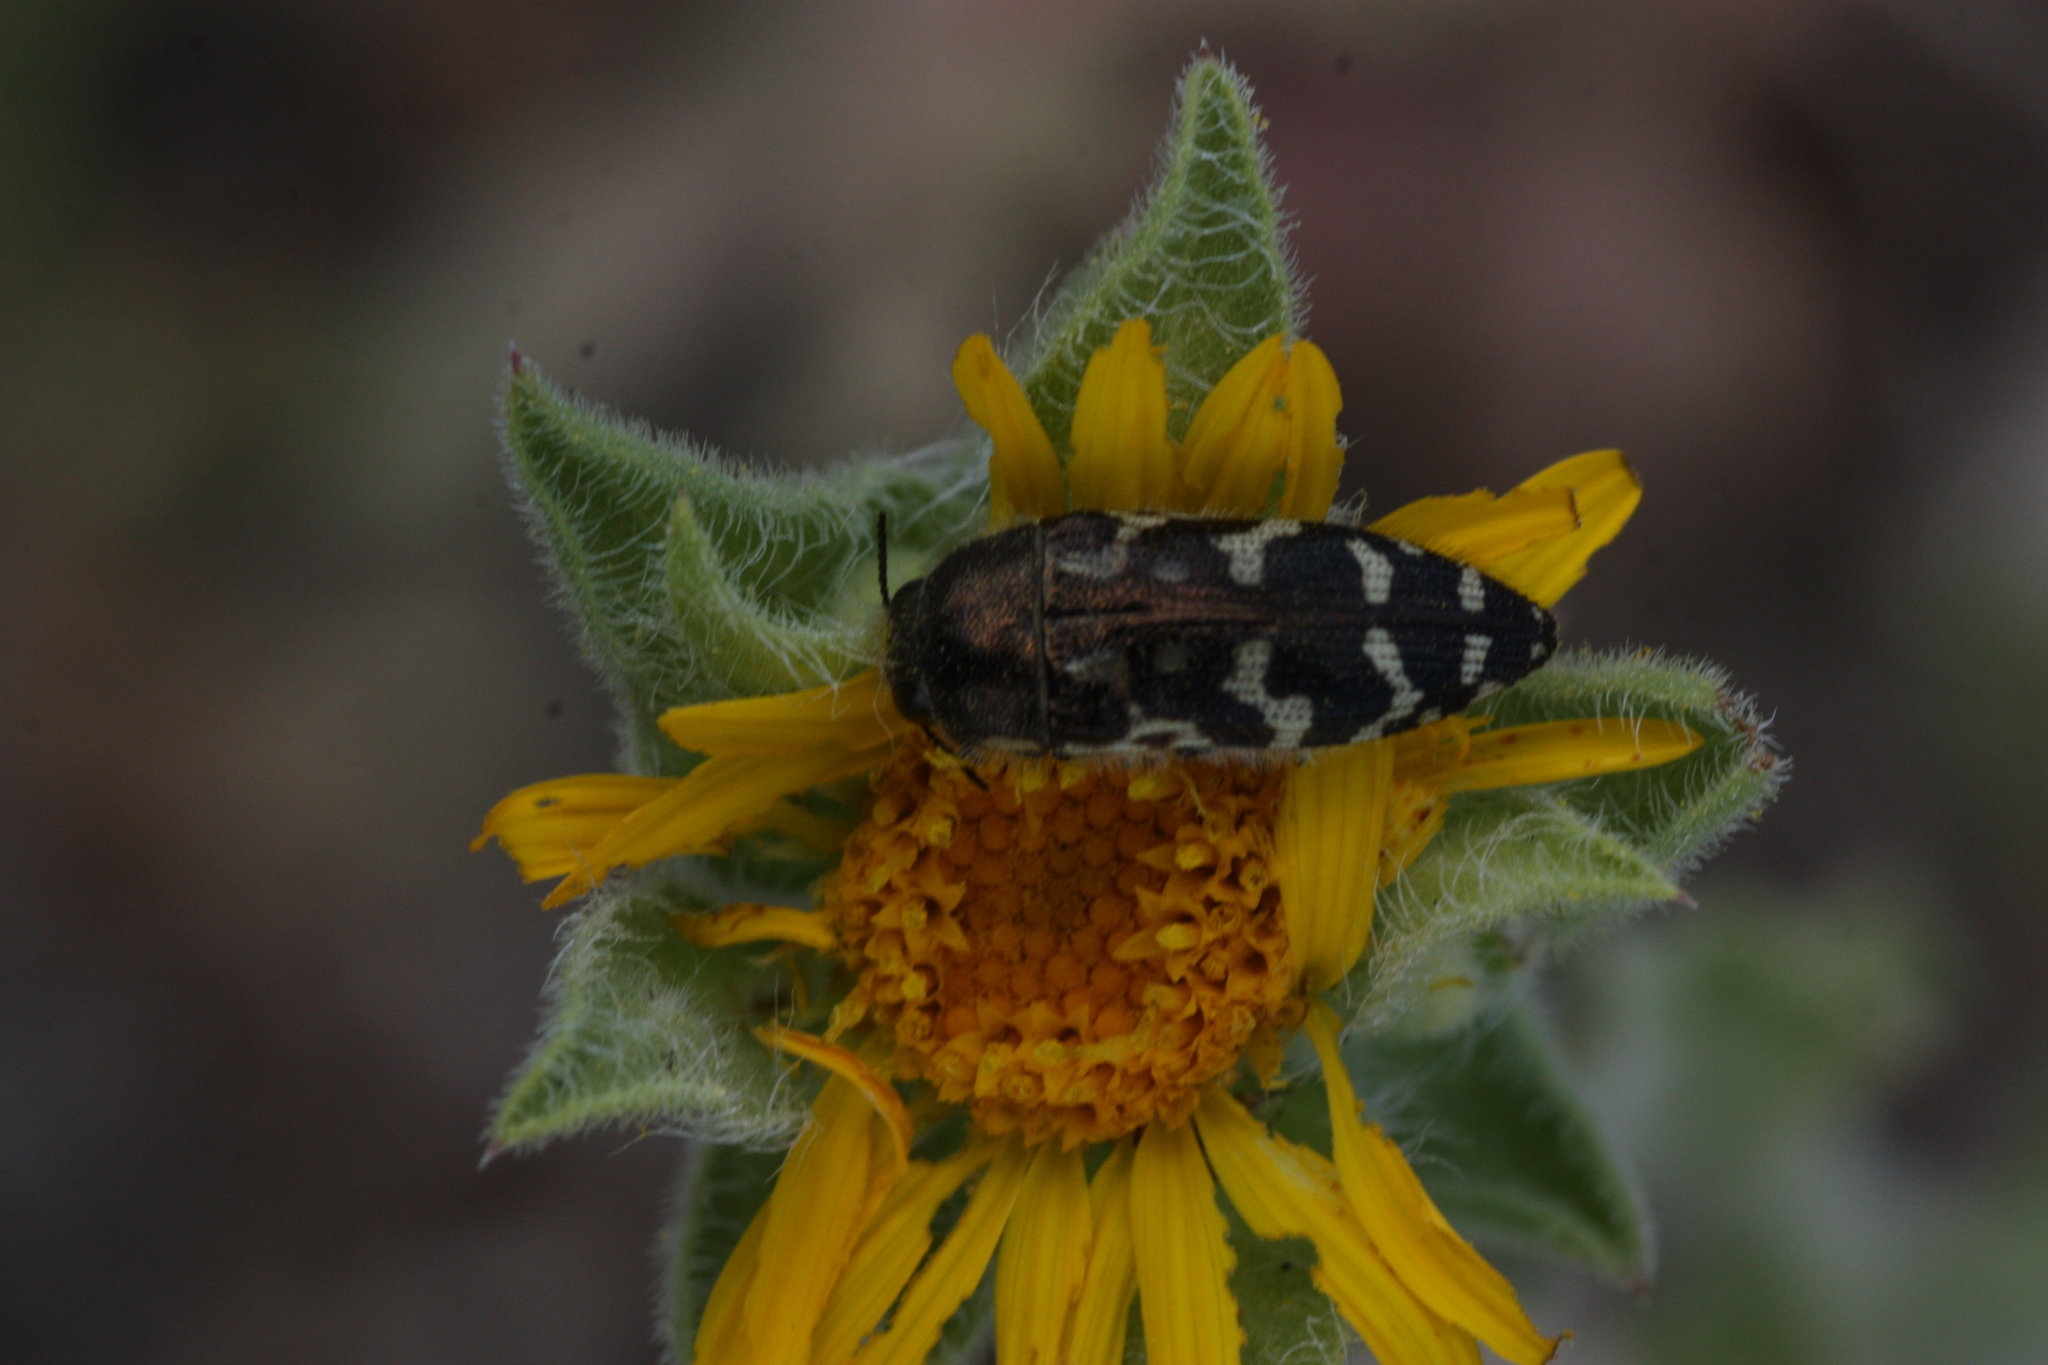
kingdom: Animalia
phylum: Arthropoda
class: Insecta
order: Coleoptera
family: Buprestidae
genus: Acmaeodera
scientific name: Acmaeodera mixta
